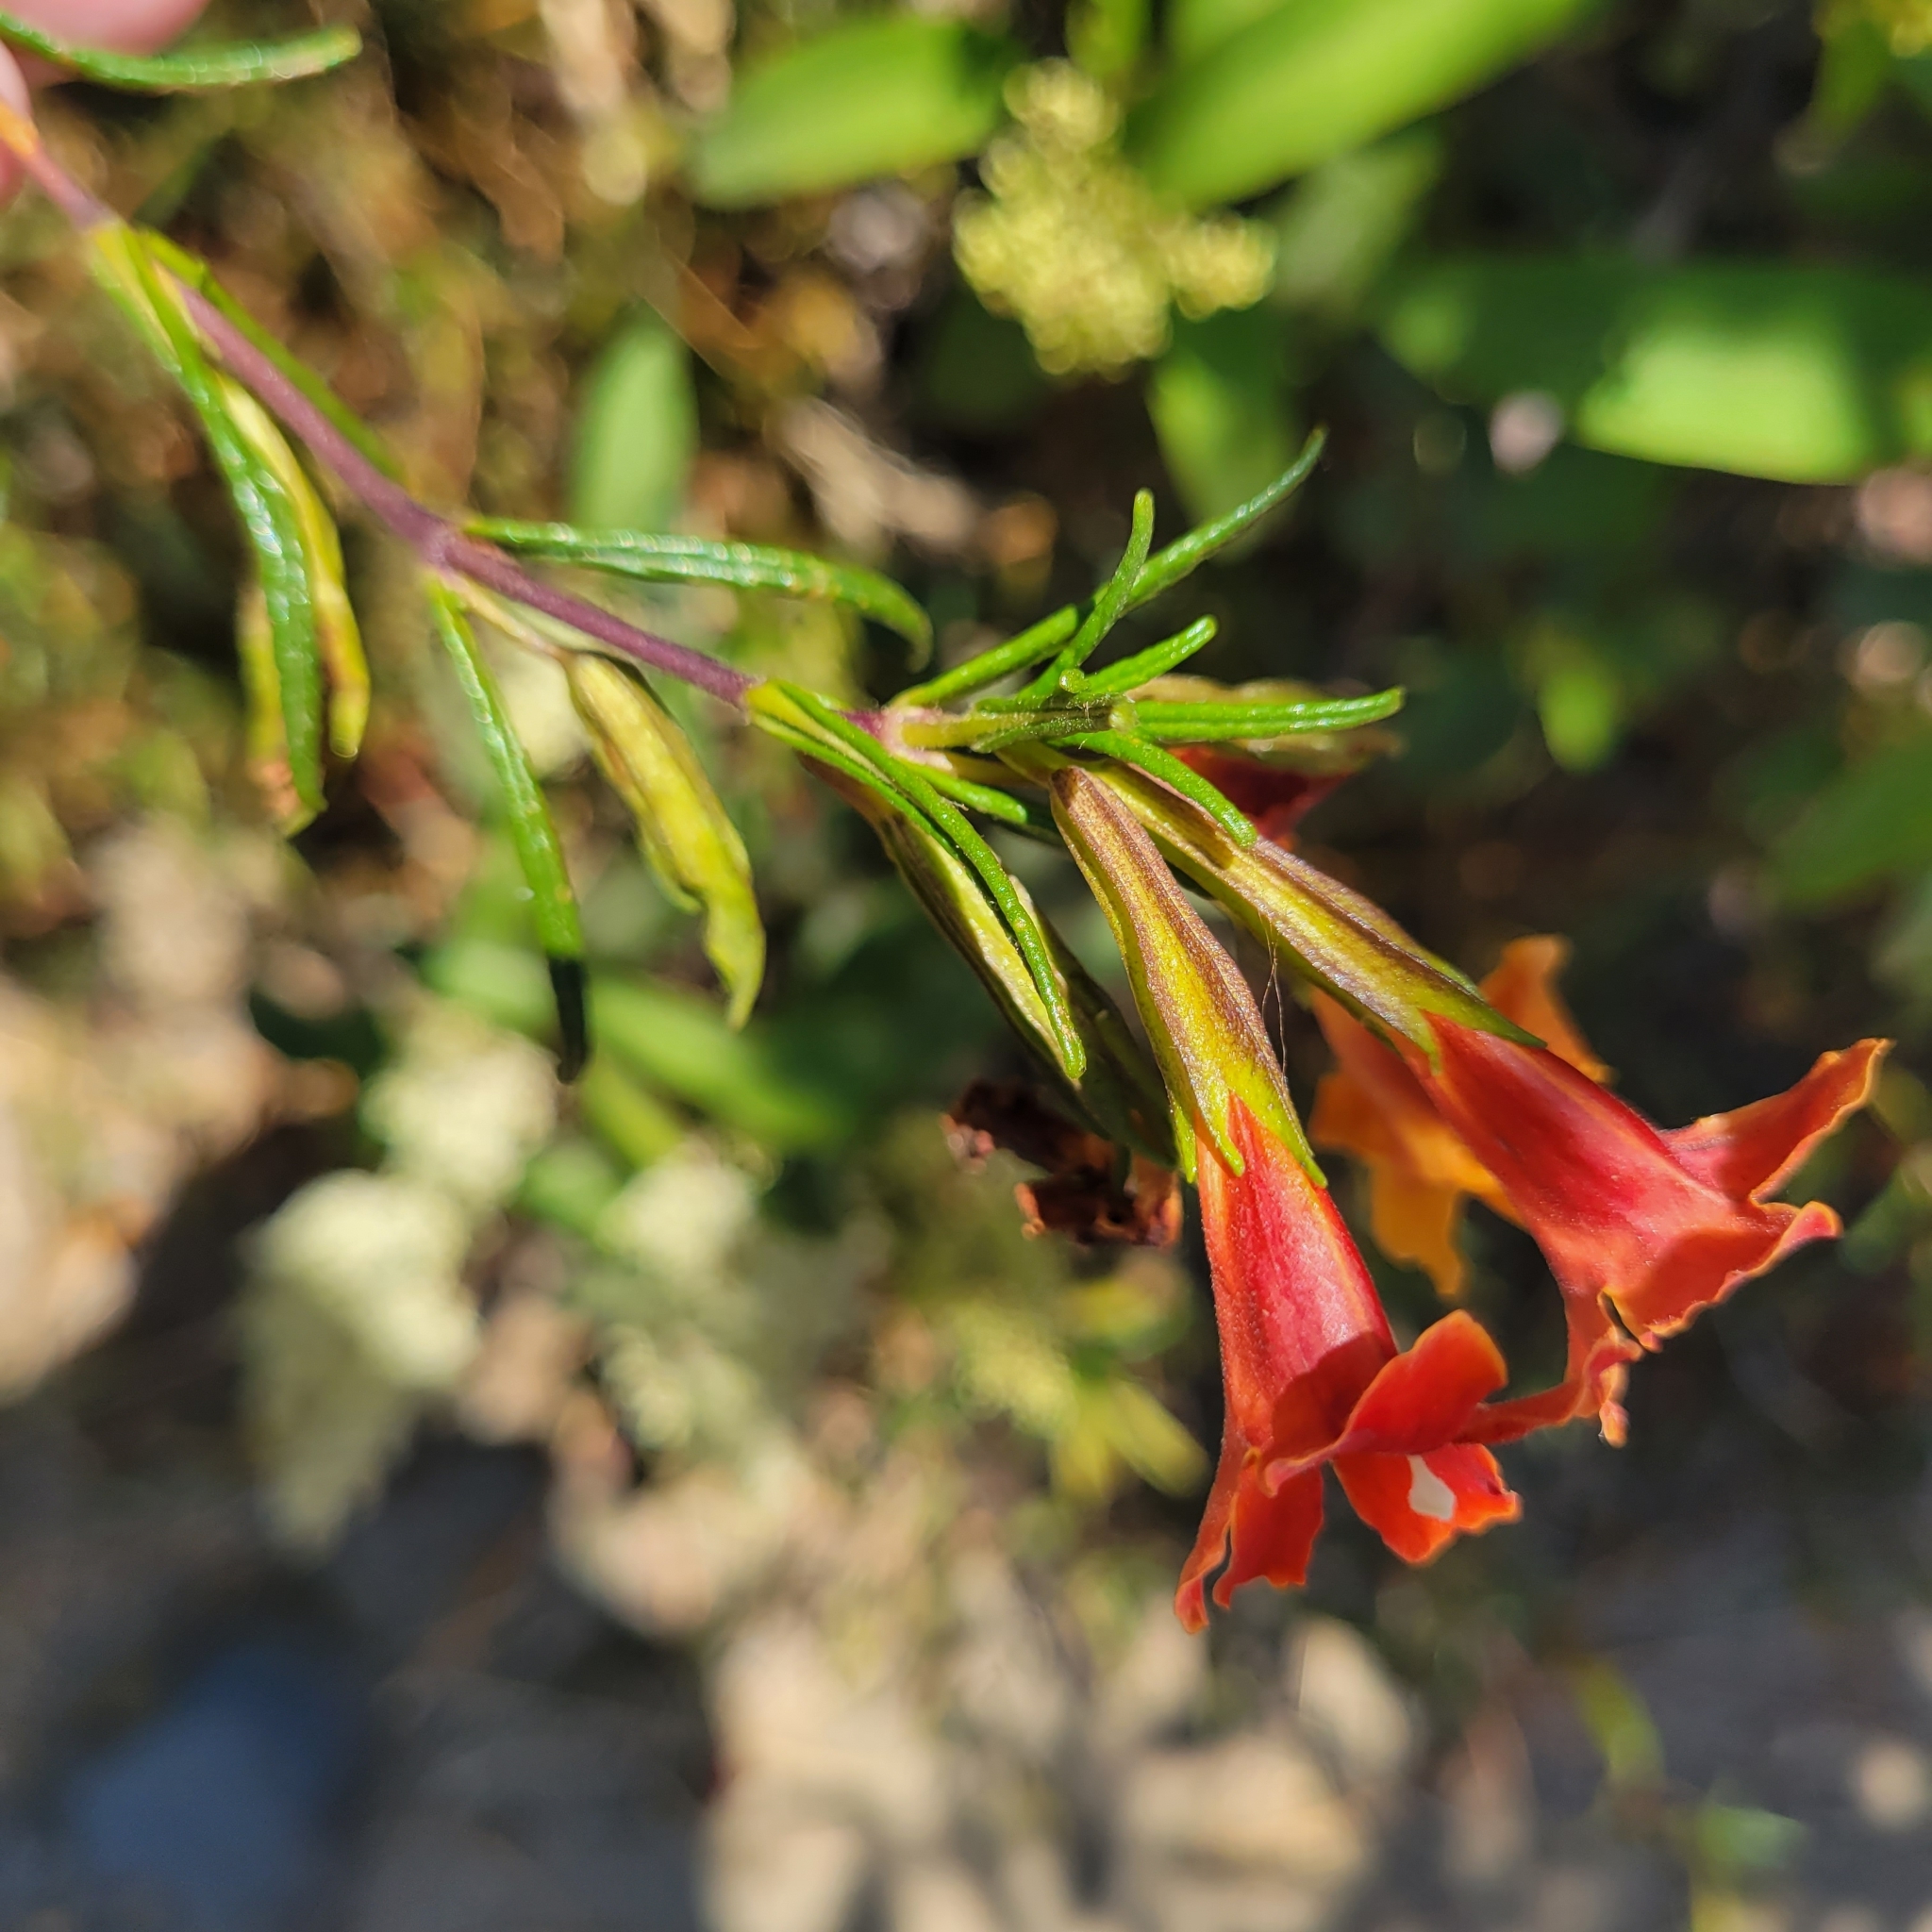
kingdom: Plantae
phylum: Tracheophyta
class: Magnoliopsida
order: Lamiales
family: Phrymaceae
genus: Diplacus
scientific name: Diplacus puniceus
